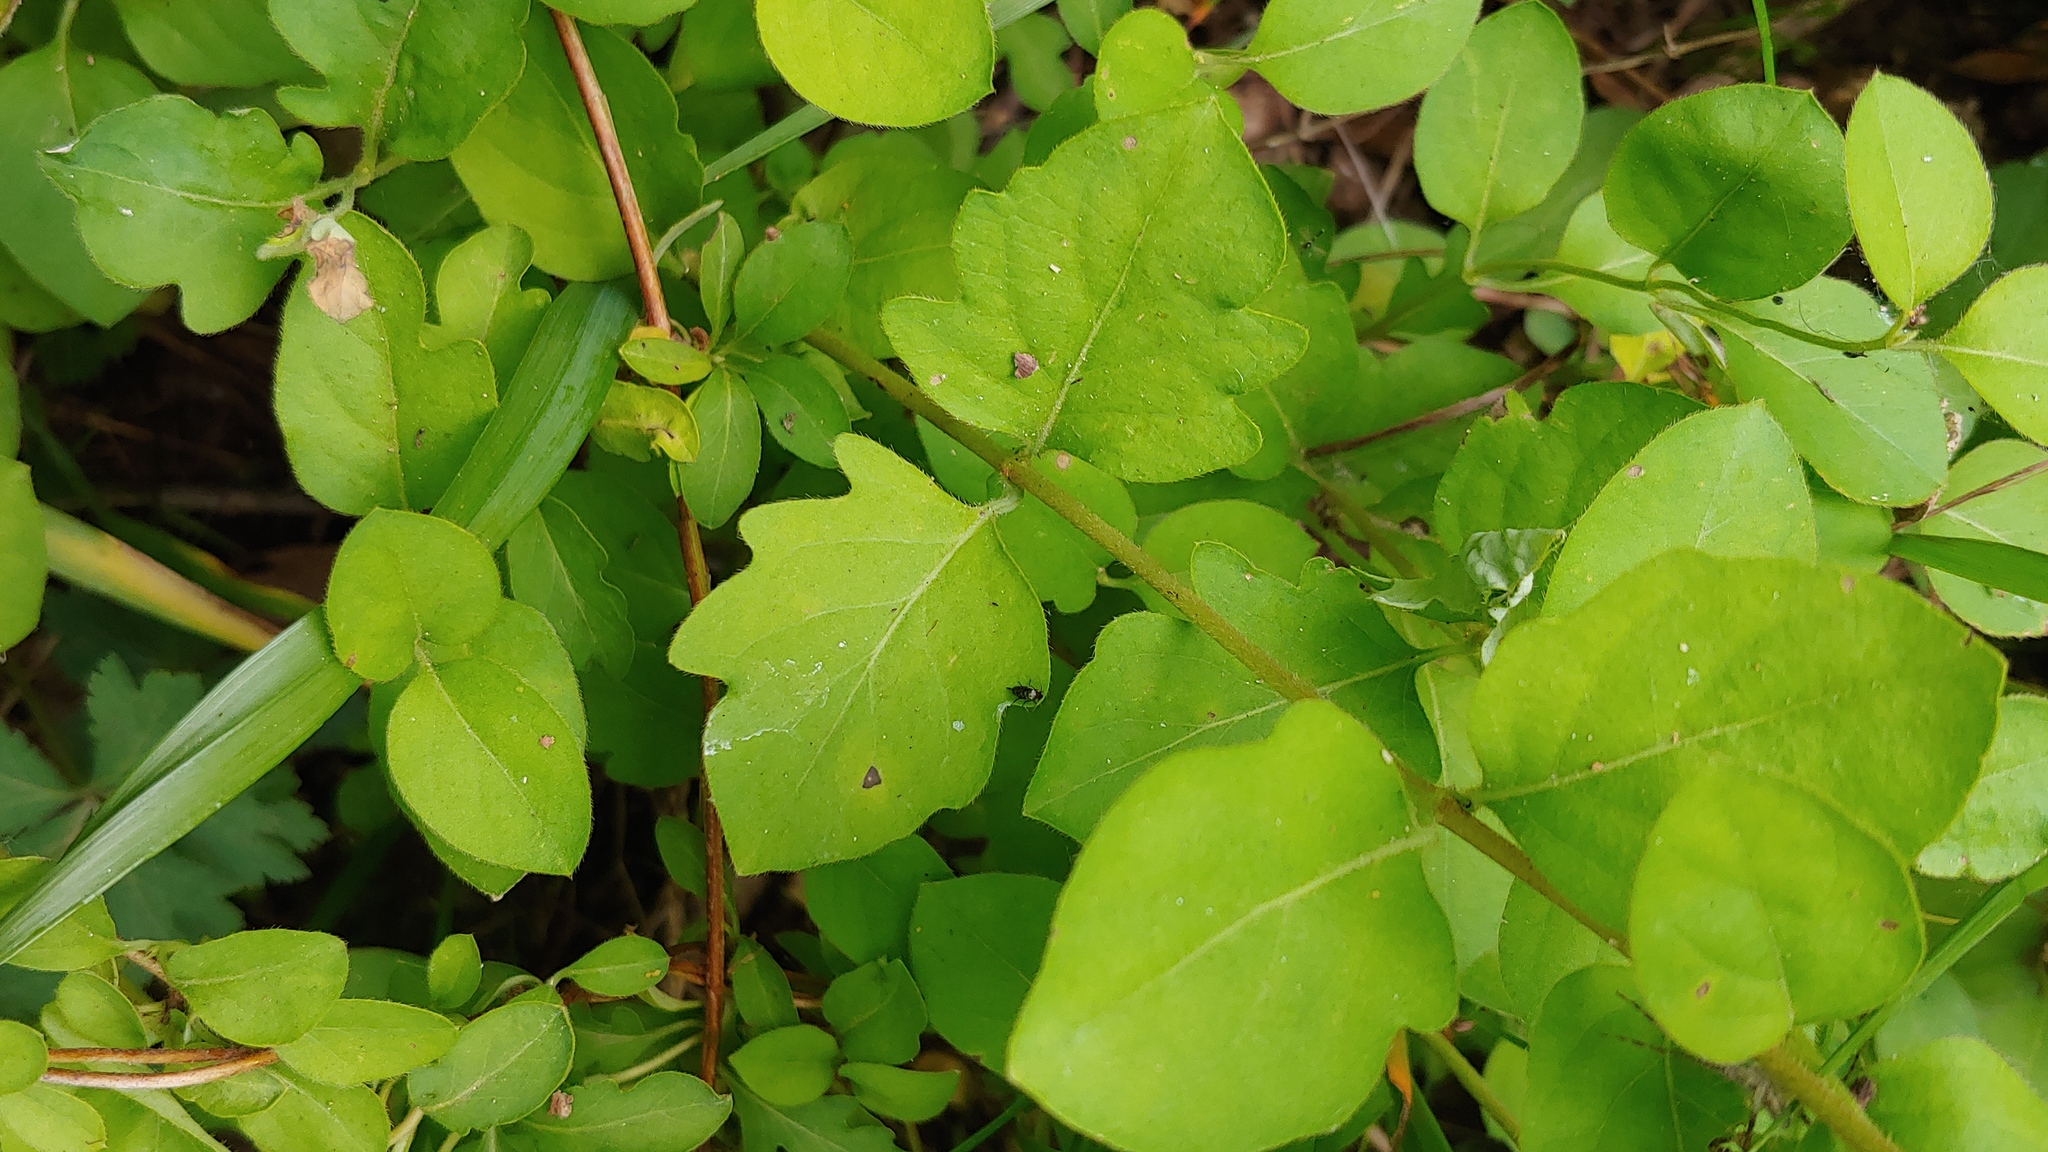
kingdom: Plantae
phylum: Tracheophyta
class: Magnoliopsida
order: Dipsacales
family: Caprifoliaceae
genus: Lonicera
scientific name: Lonicera japonica
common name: Japanese honeysuckle
